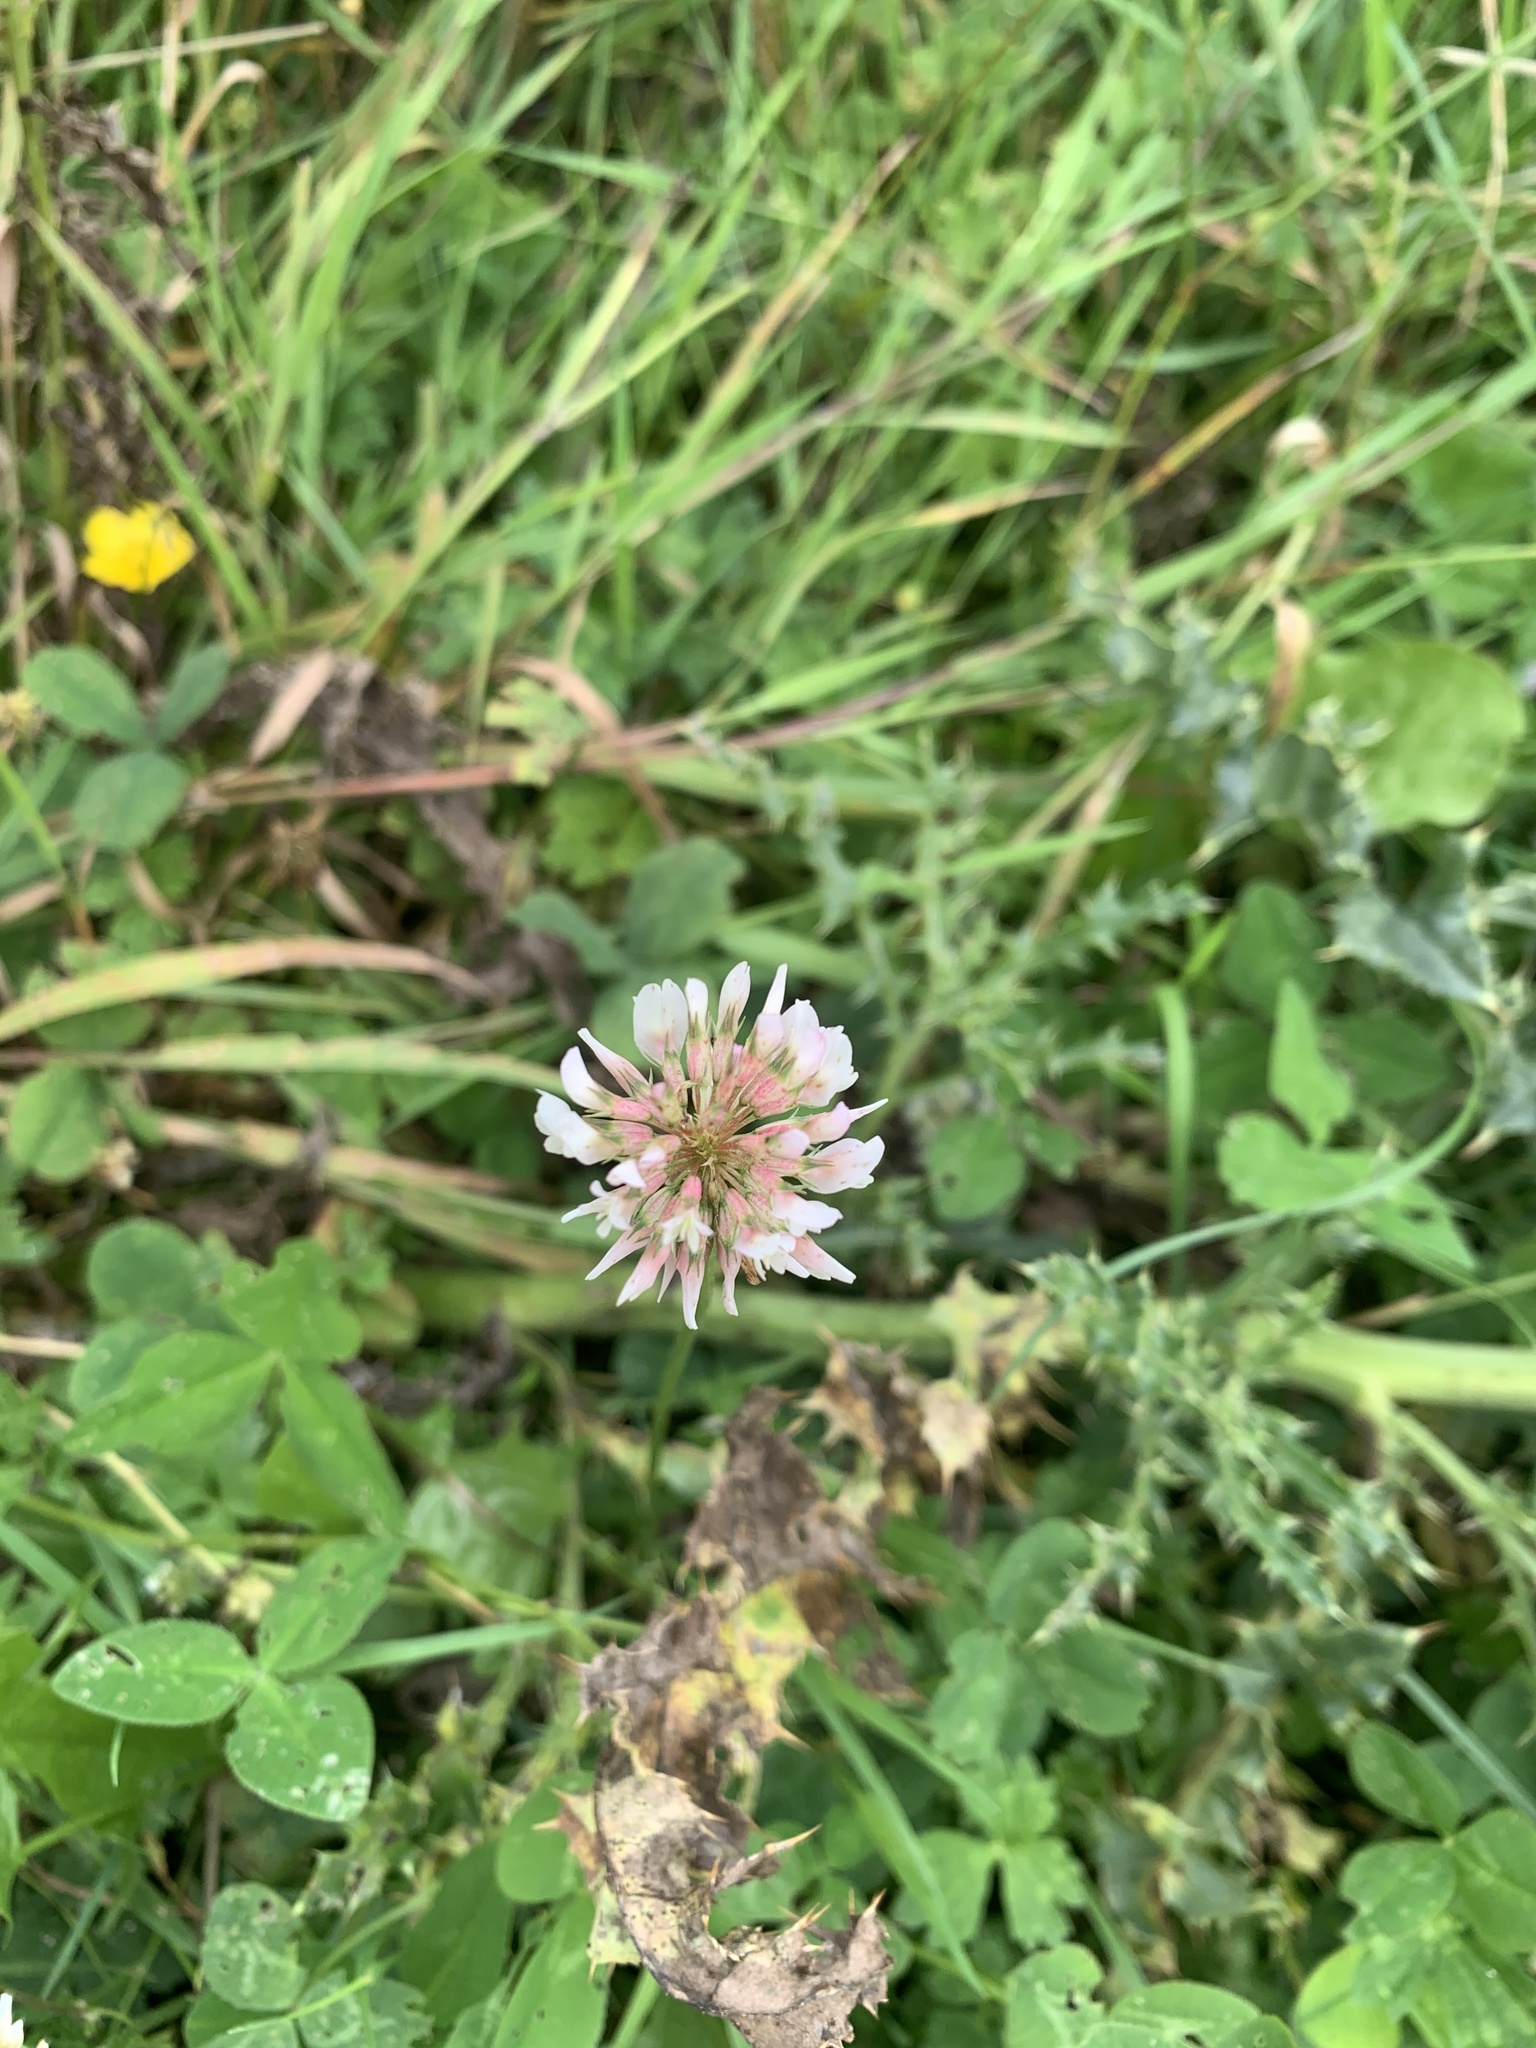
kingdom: Plantae
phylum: Tracheophyta
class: Magnoliopsida
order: Fabales
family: Fabaceae
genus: Trifolium
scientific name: Trifolium repens
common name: White clover
